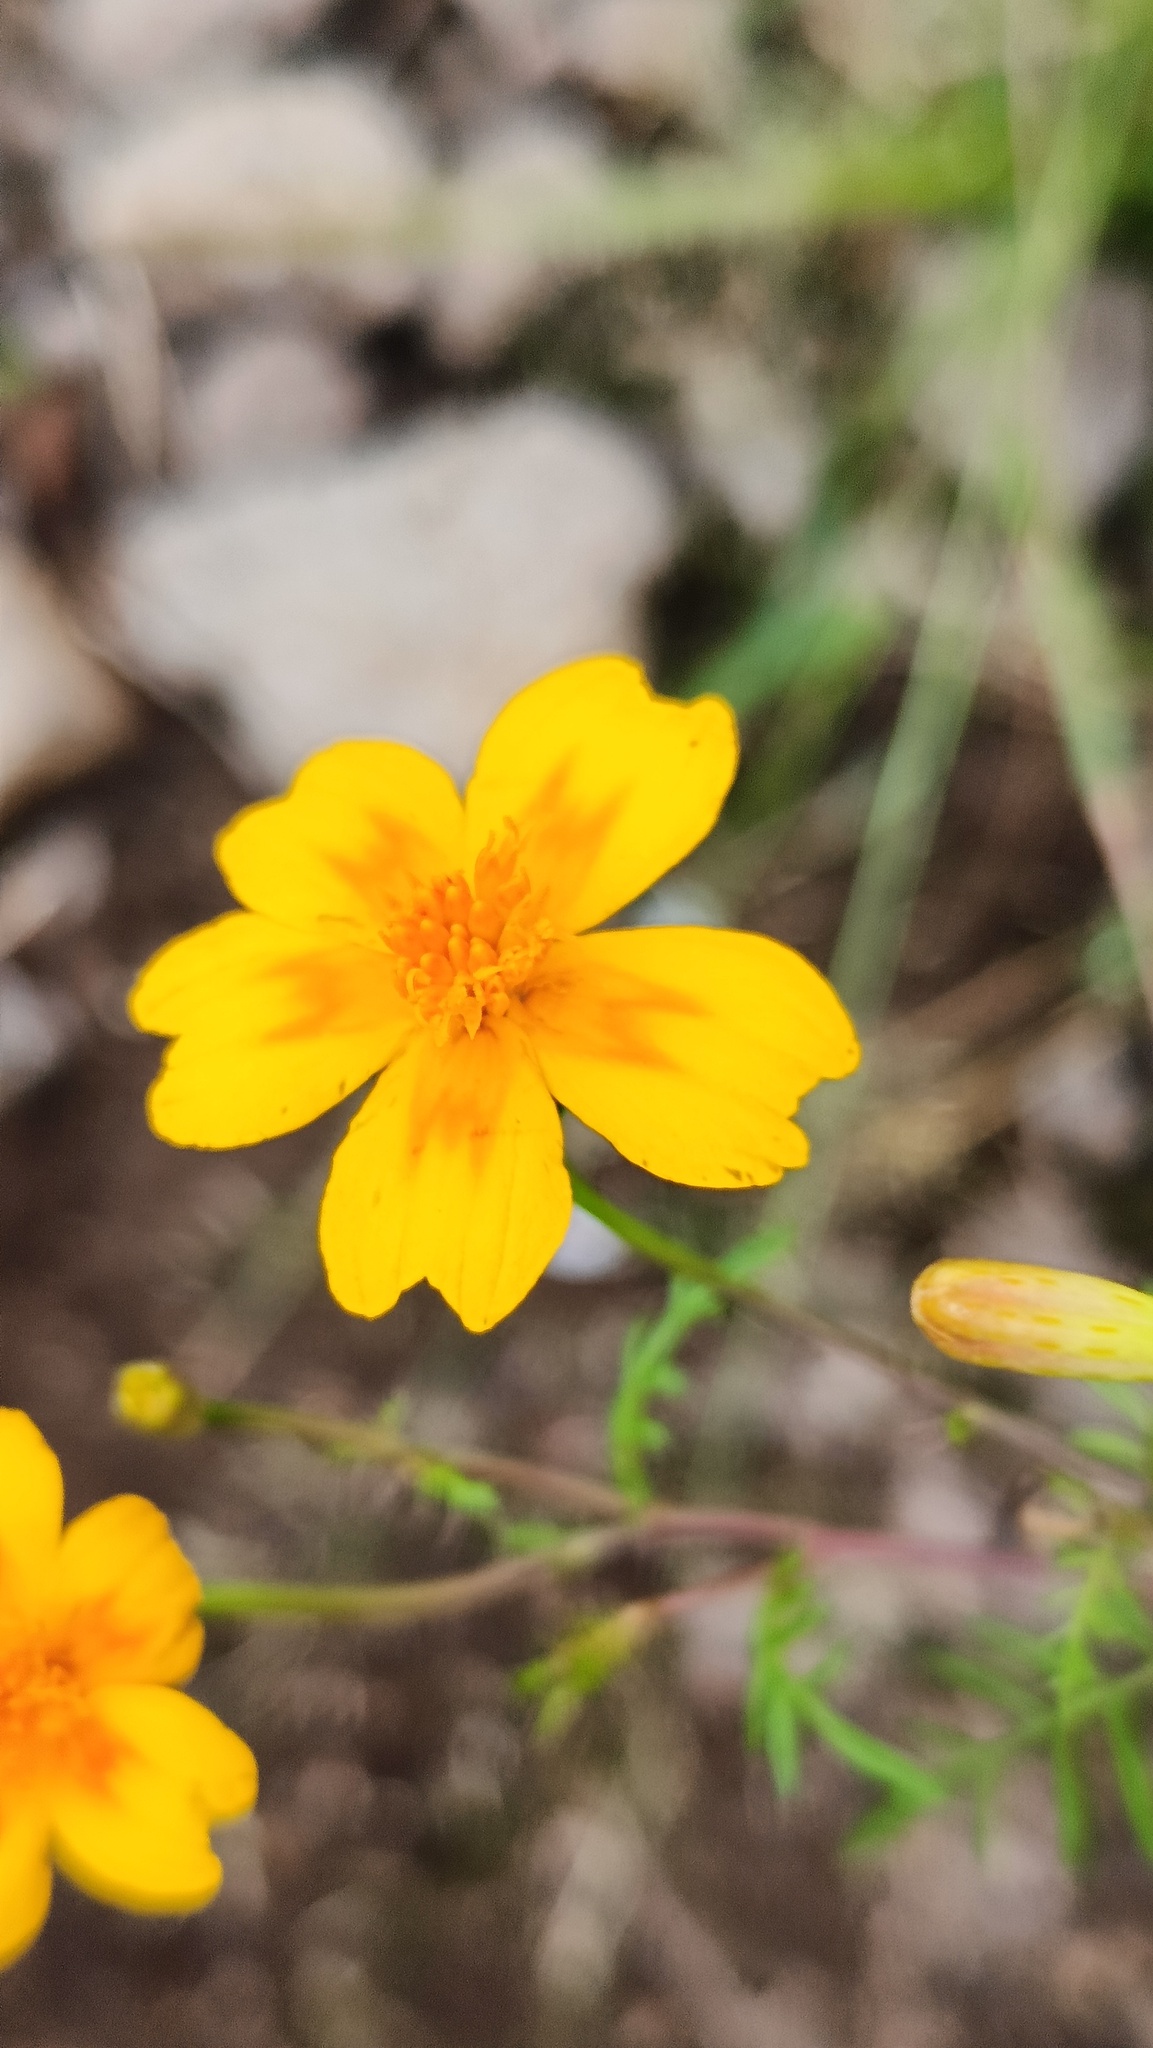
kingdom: Plantae
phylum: Tracheophyta
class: Magnoliopsida
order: Asterales
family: Asteraceae
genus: Tagetes
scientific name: Tagetes lunulata
